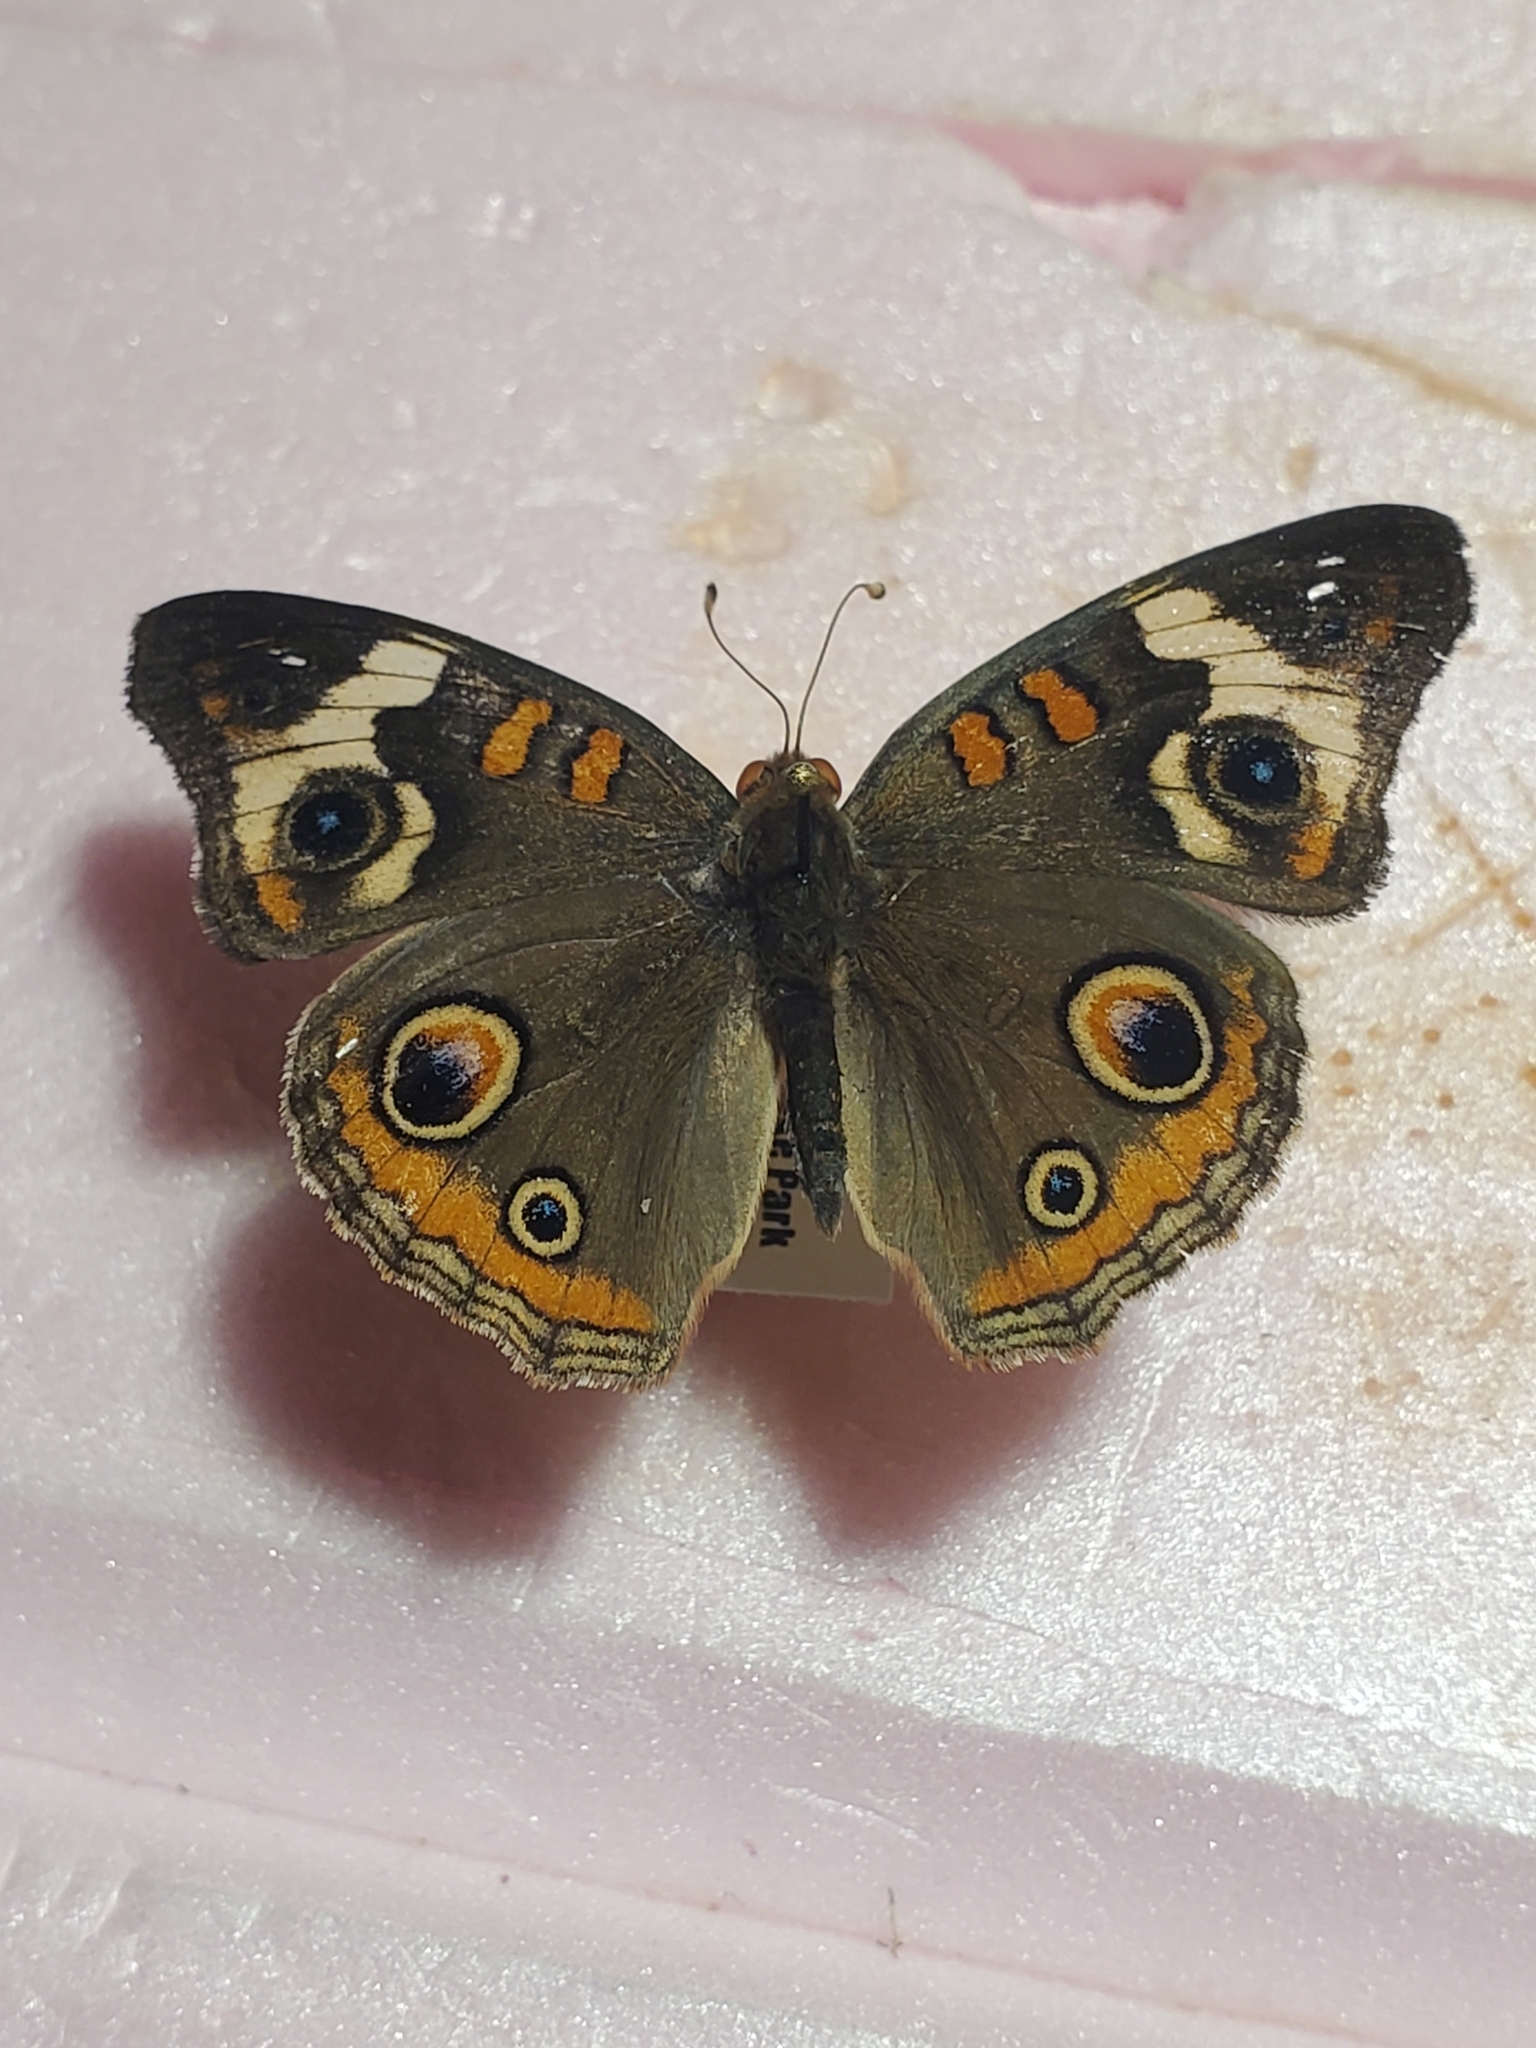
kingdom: Animalia
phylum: Arthropoda
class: Insecta
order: Lepidoptera
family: Nymphalidae
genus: Junonia
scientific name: Junonia coenia
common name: Common buckeye
